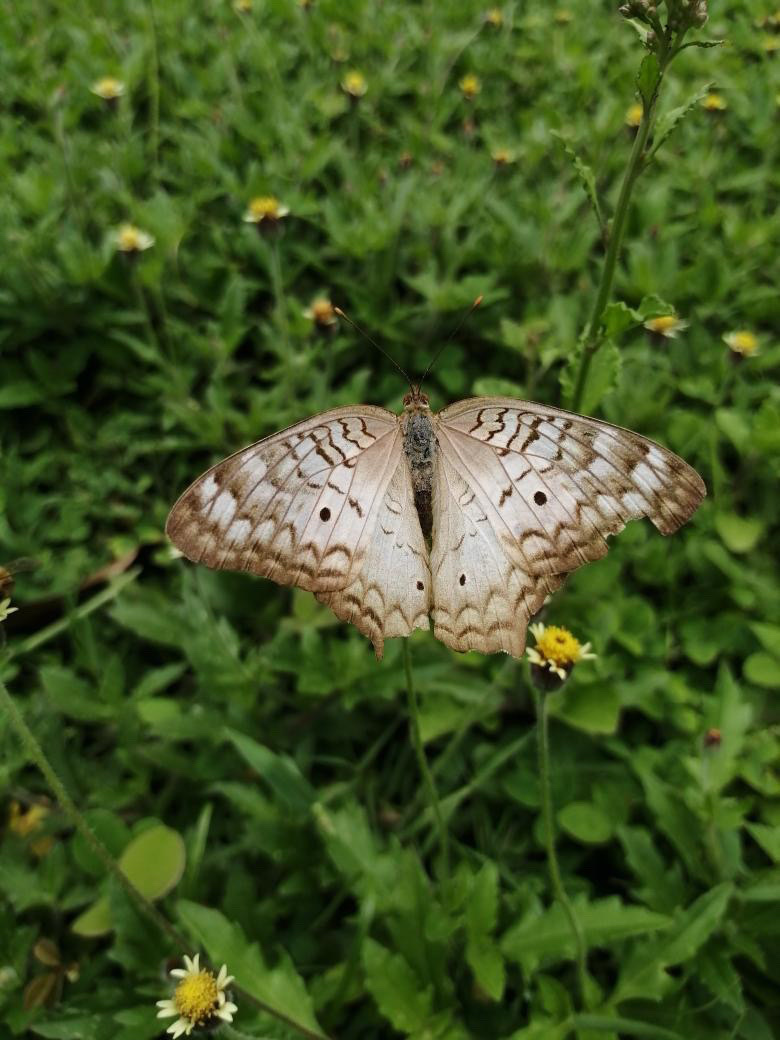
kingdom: Animalia
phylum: Arthropoda
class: Insecta
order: Lepidoptera
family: Nymphalidae
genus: Anartia
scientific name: Anartia jatrophae
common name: White peacock
